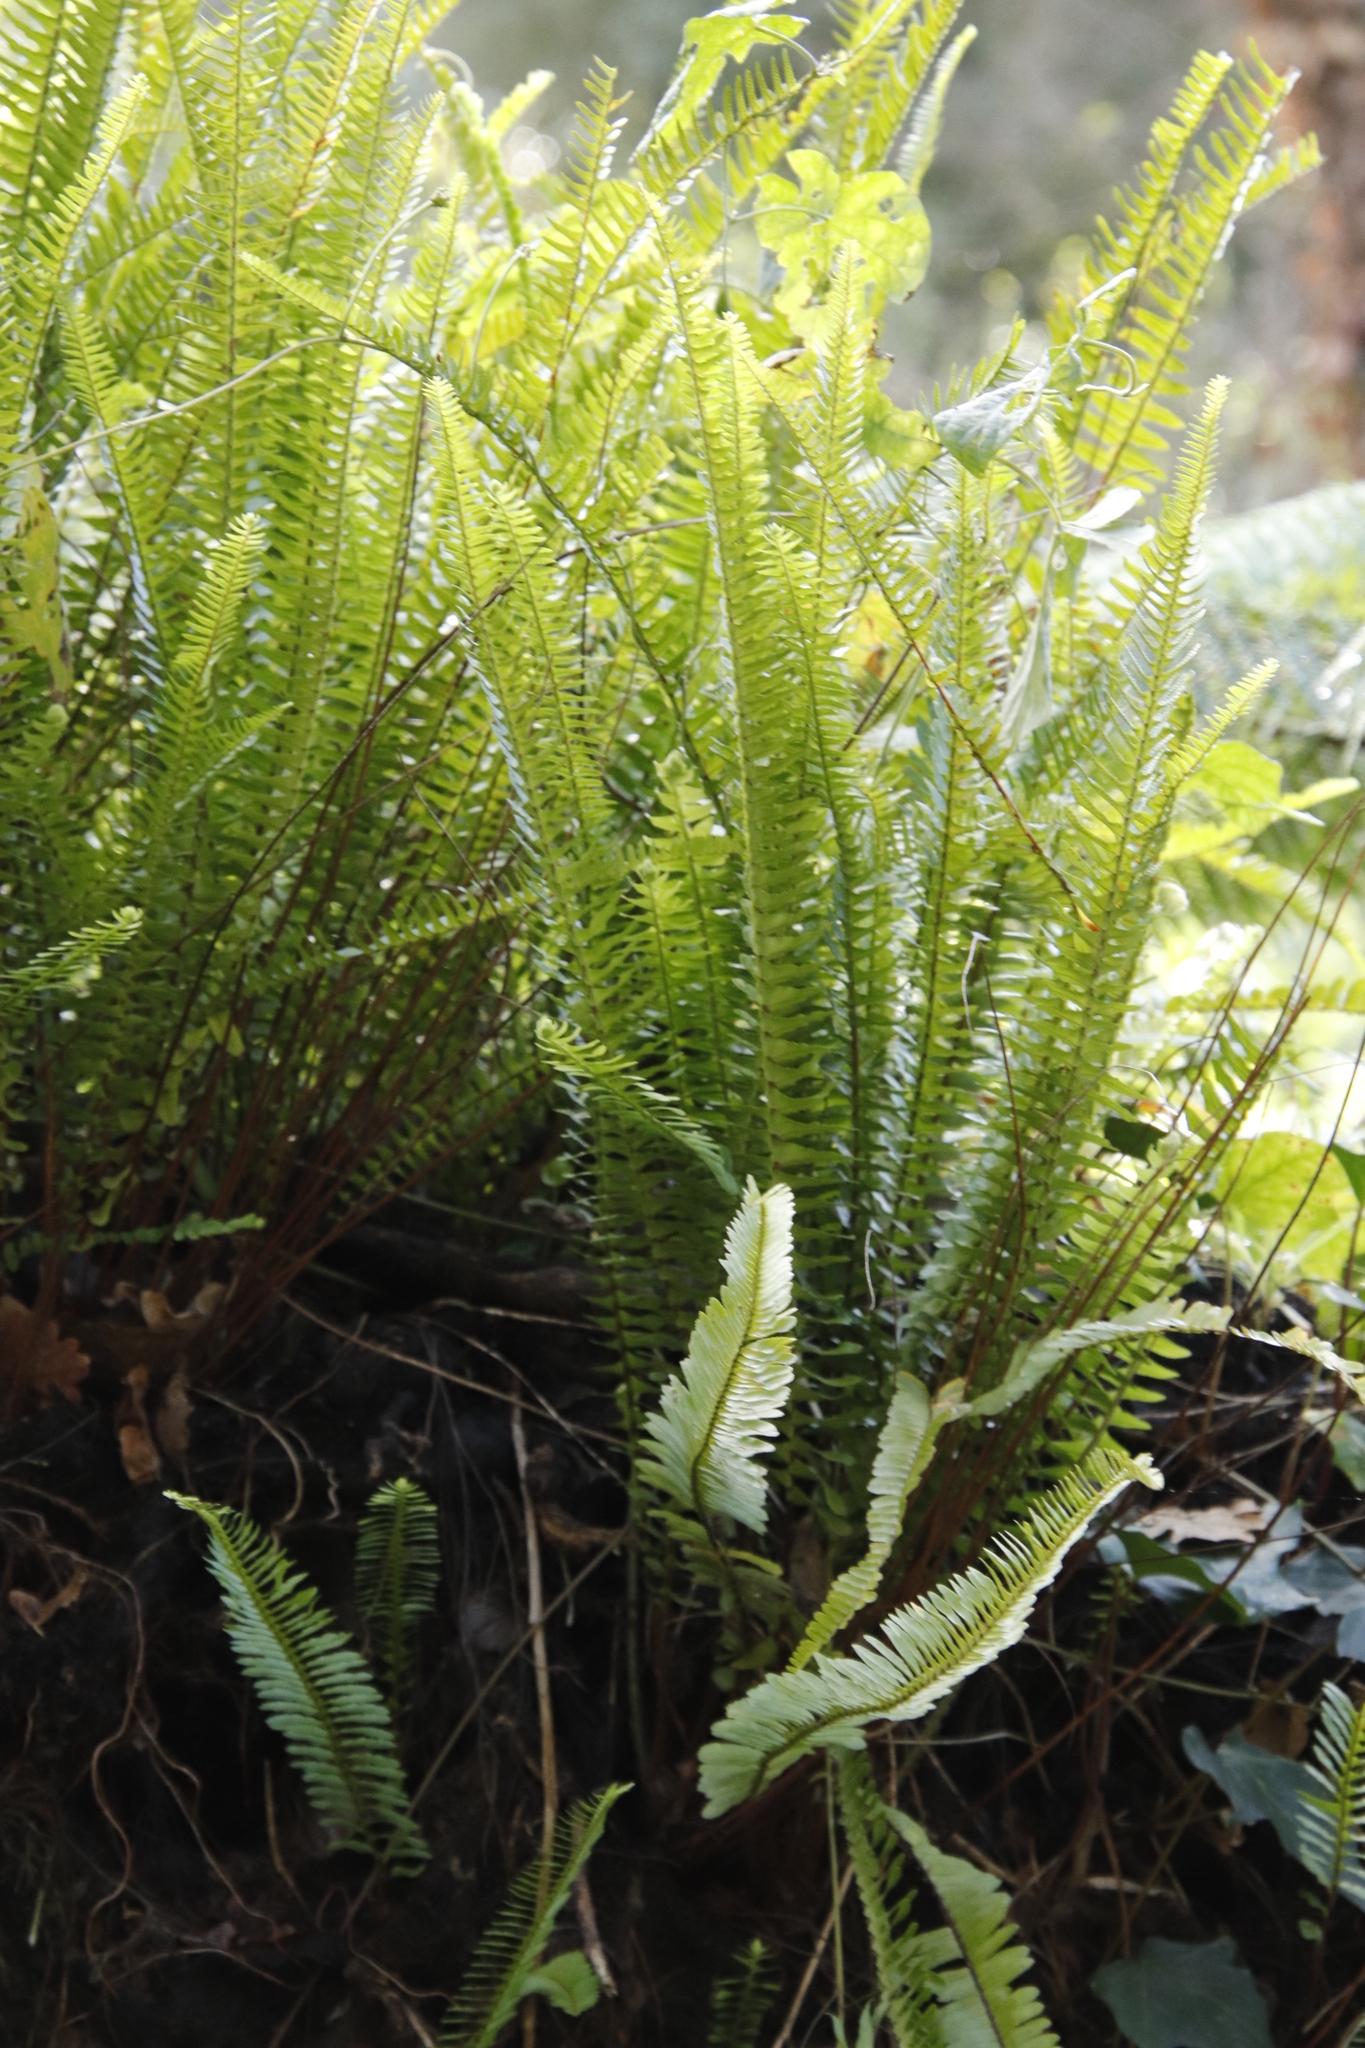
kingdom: Plantae
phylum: Tracheophyta
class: Polypodiopsida
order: Polypodiales
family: Nephrolepidaceae
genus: Nephrolepis
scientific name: Nephrolepis cordifolia
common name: Narrow swordfern
